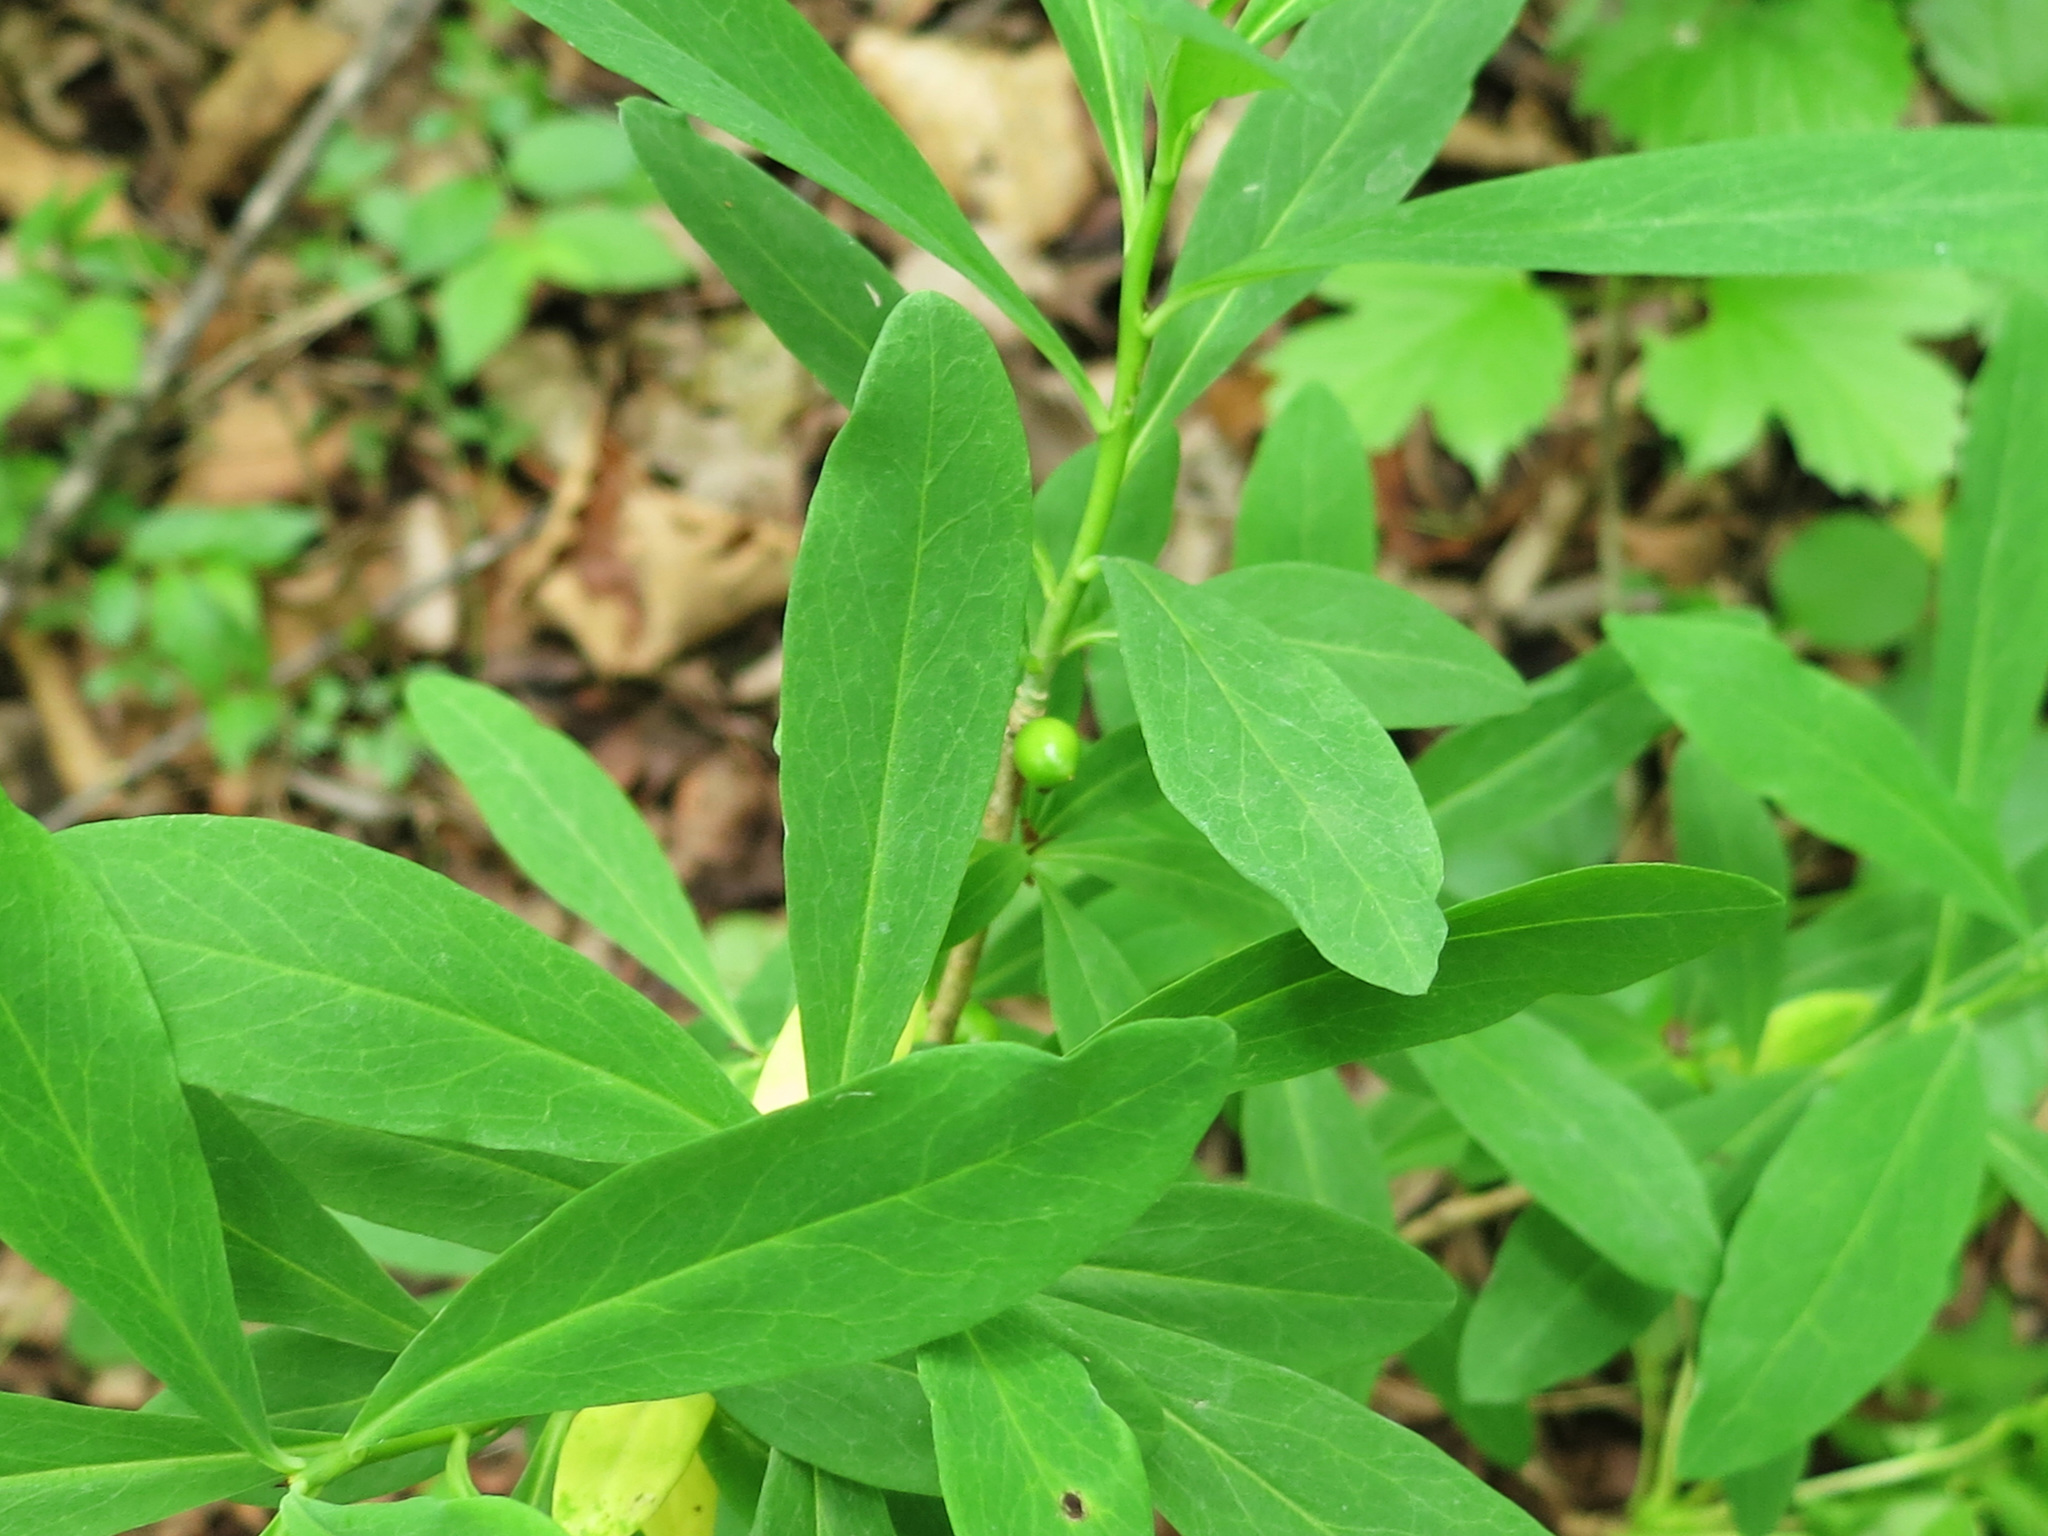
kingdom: Plantae
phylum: Tracheophyta
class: Magnoliopsida
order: Malvales
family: Thymelaeaceae
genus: Daphne
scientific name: Daphne kamtschatica
